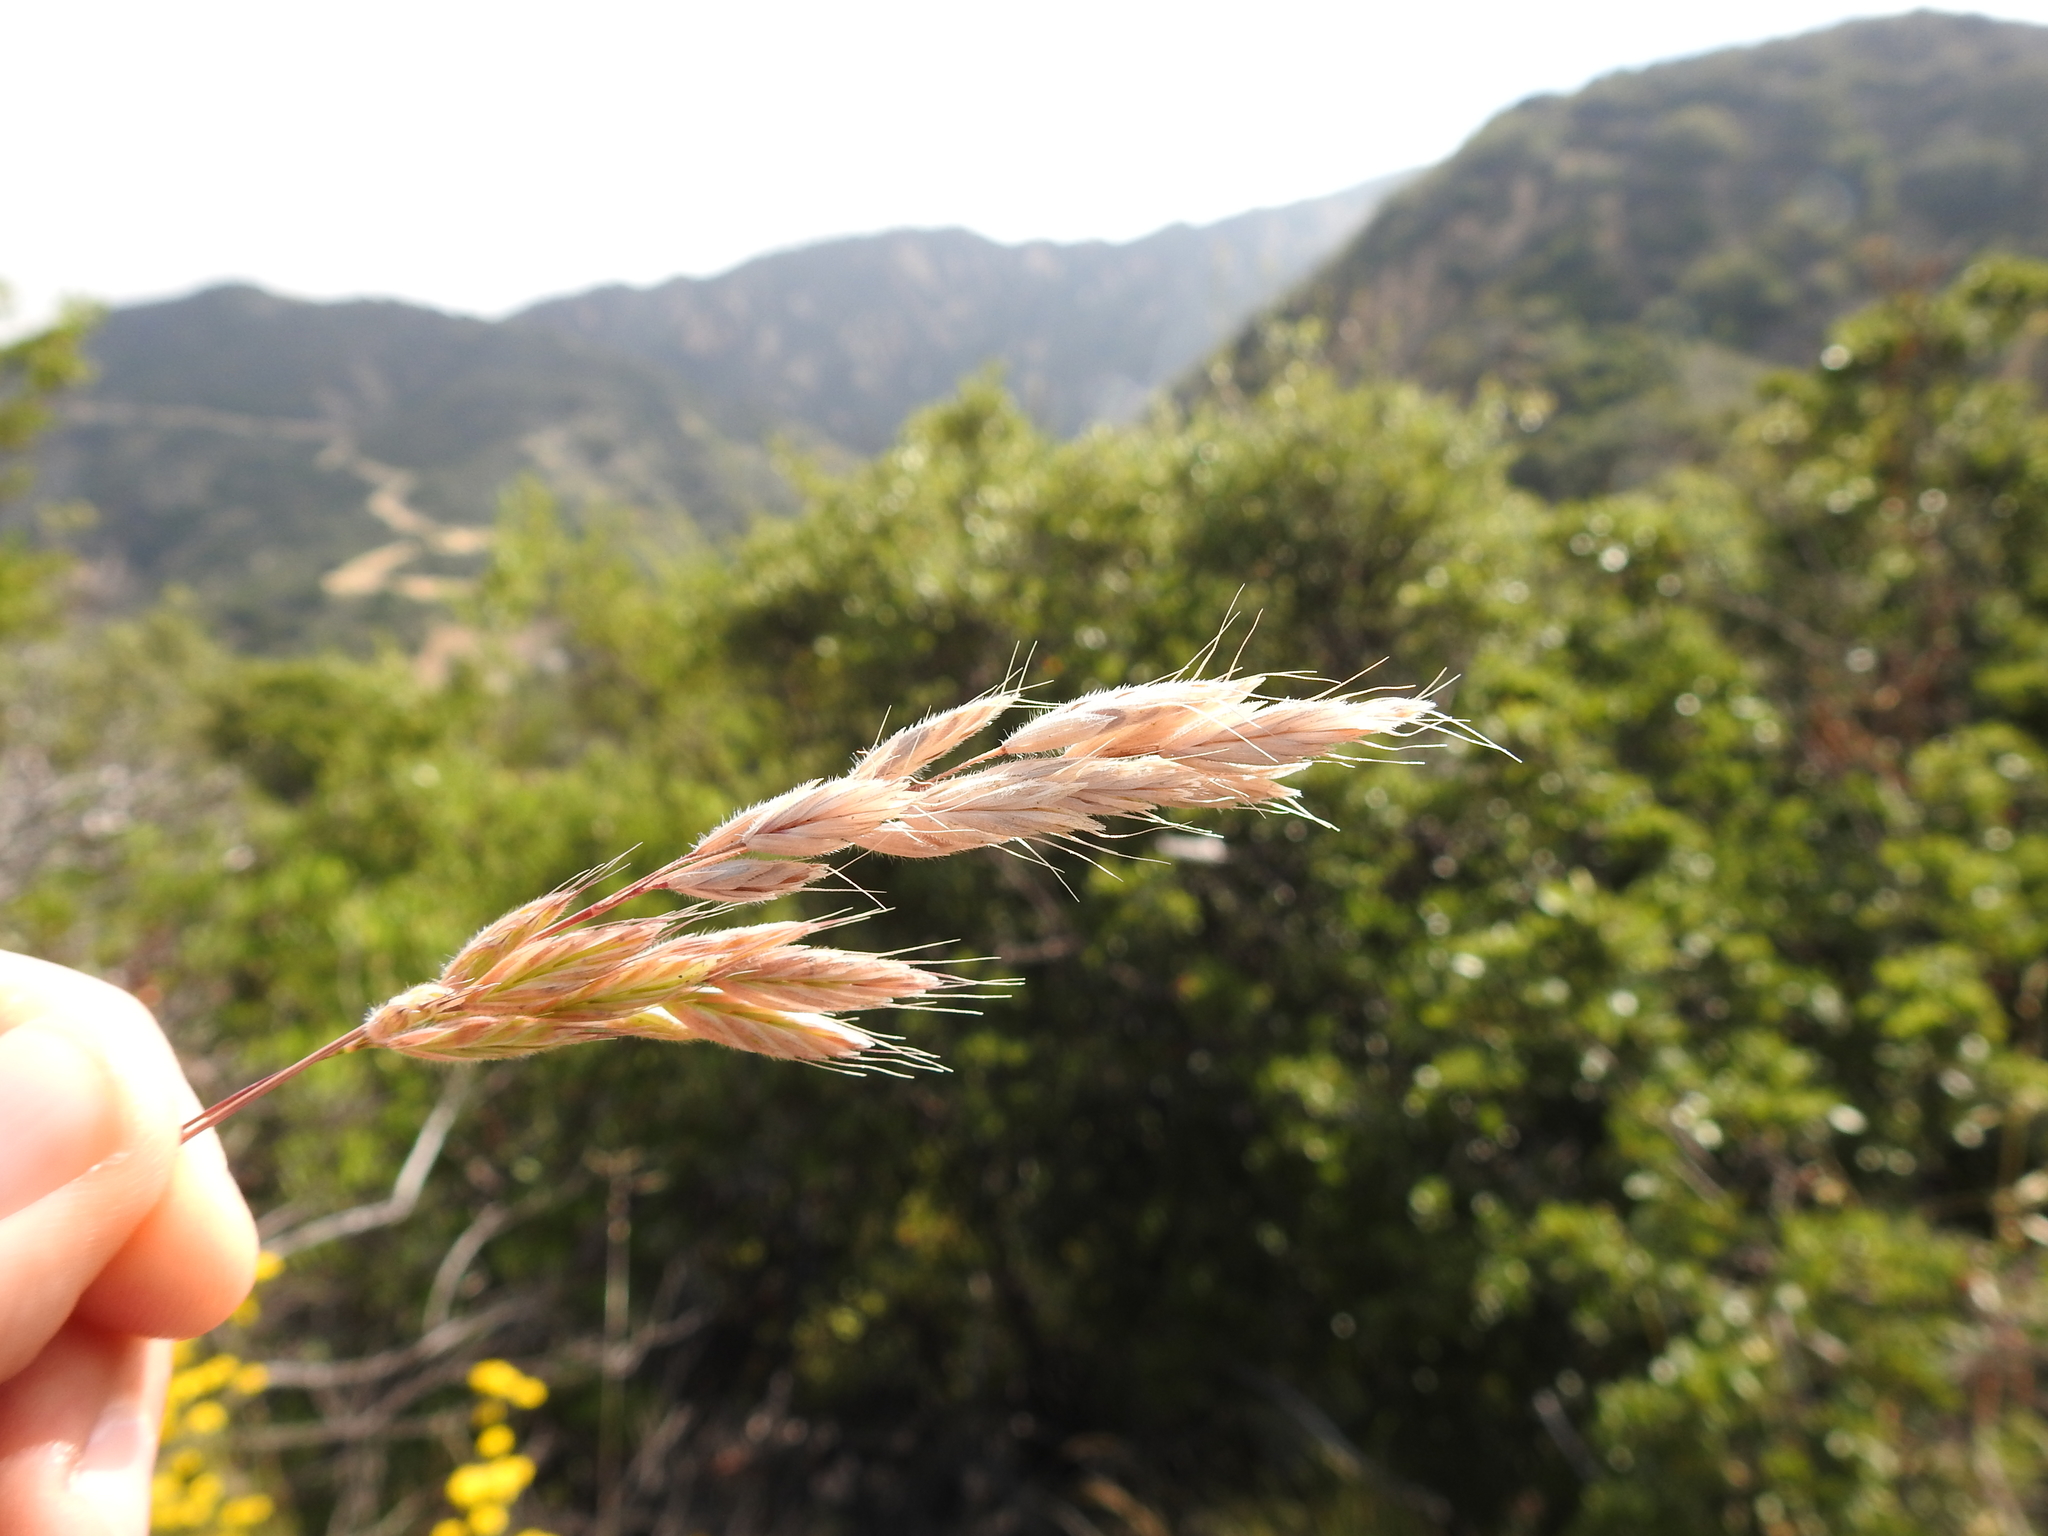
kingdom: Plantae
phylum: Tracheophyta
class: Liliopsida
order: Poales
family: Poaceae
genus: Bromus
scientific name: Bromus hordeaceus
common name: Soft brome
